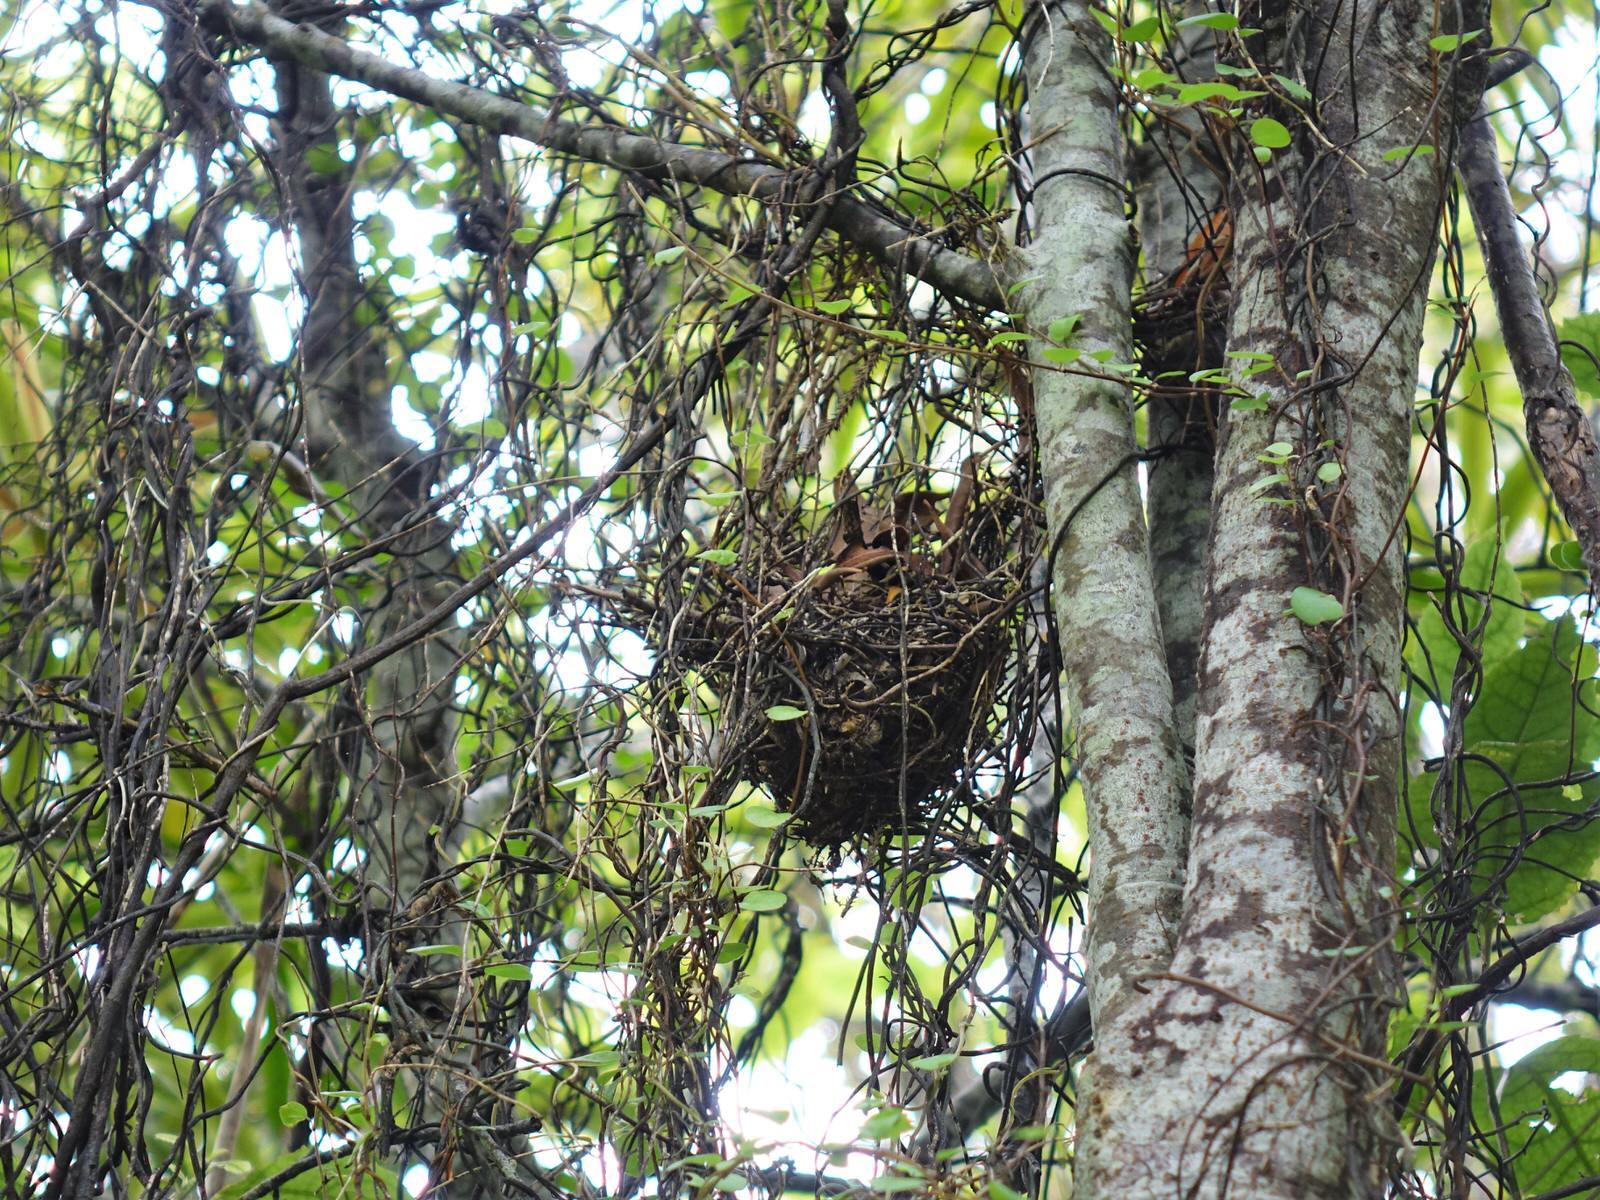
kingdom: Animalia
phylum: Chordata
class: Aves
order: Passeriformes
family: Rhipiduridae
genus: Rhipidura
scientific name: Rhipidura fuliginosa
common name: New zealand fantail
